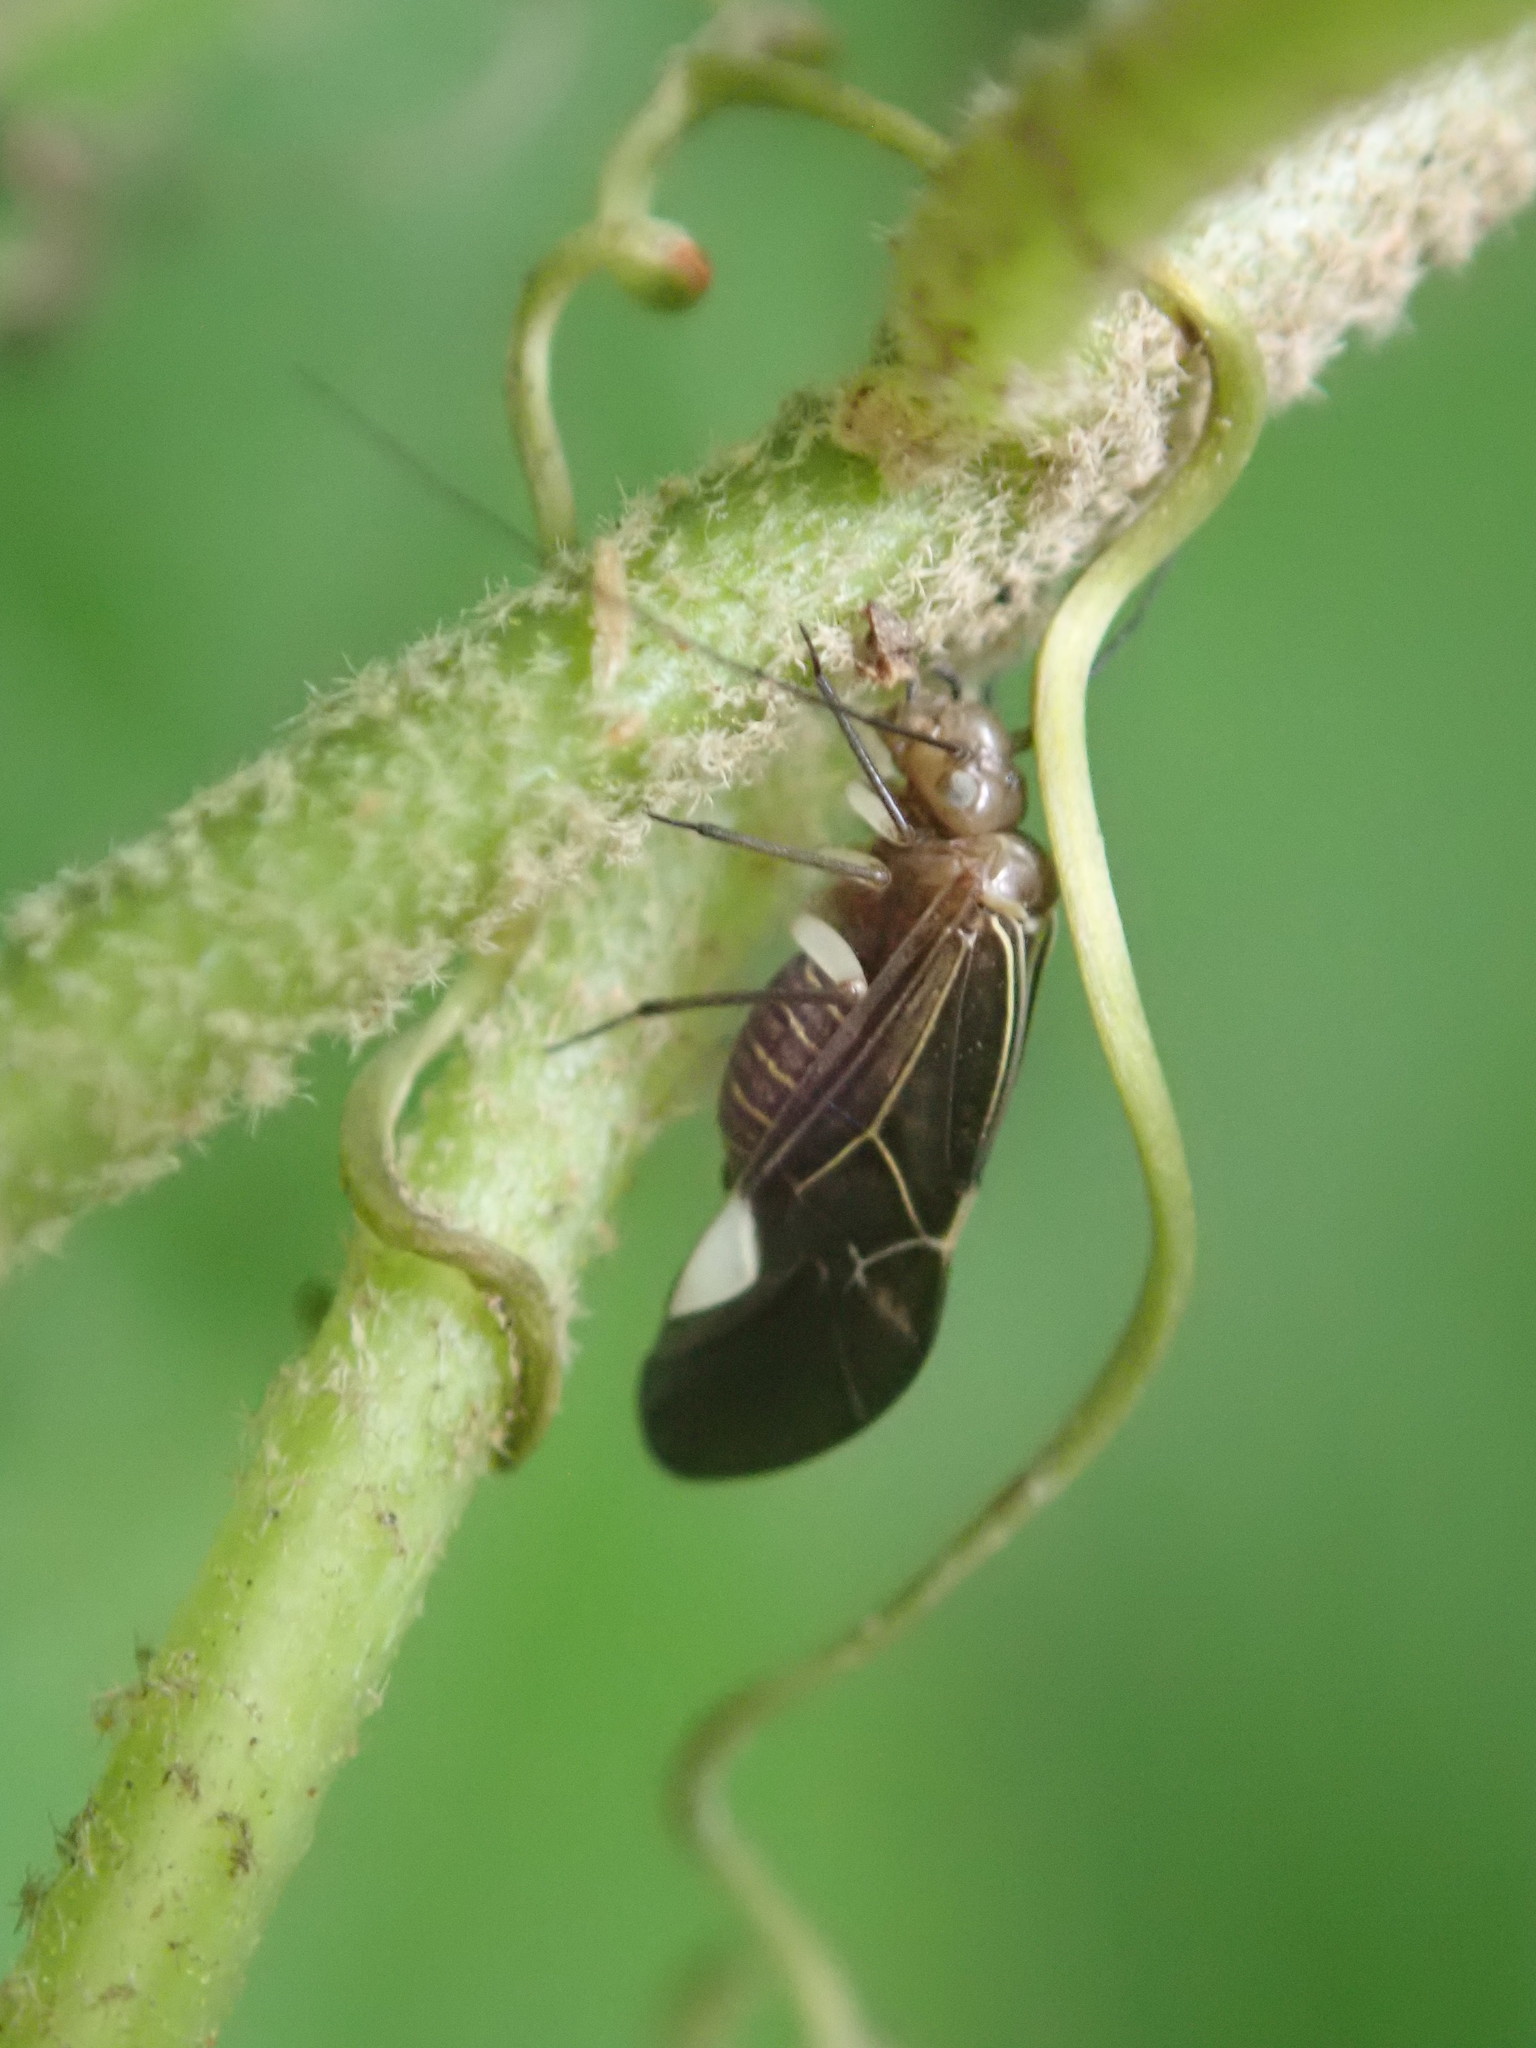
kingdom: Animalia
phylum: Arthropoda
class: Insecta
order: Psocodea
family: Psocidae
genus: Cerastipsocus
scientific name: Cerastipsocus venosus
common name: Tree cattle
